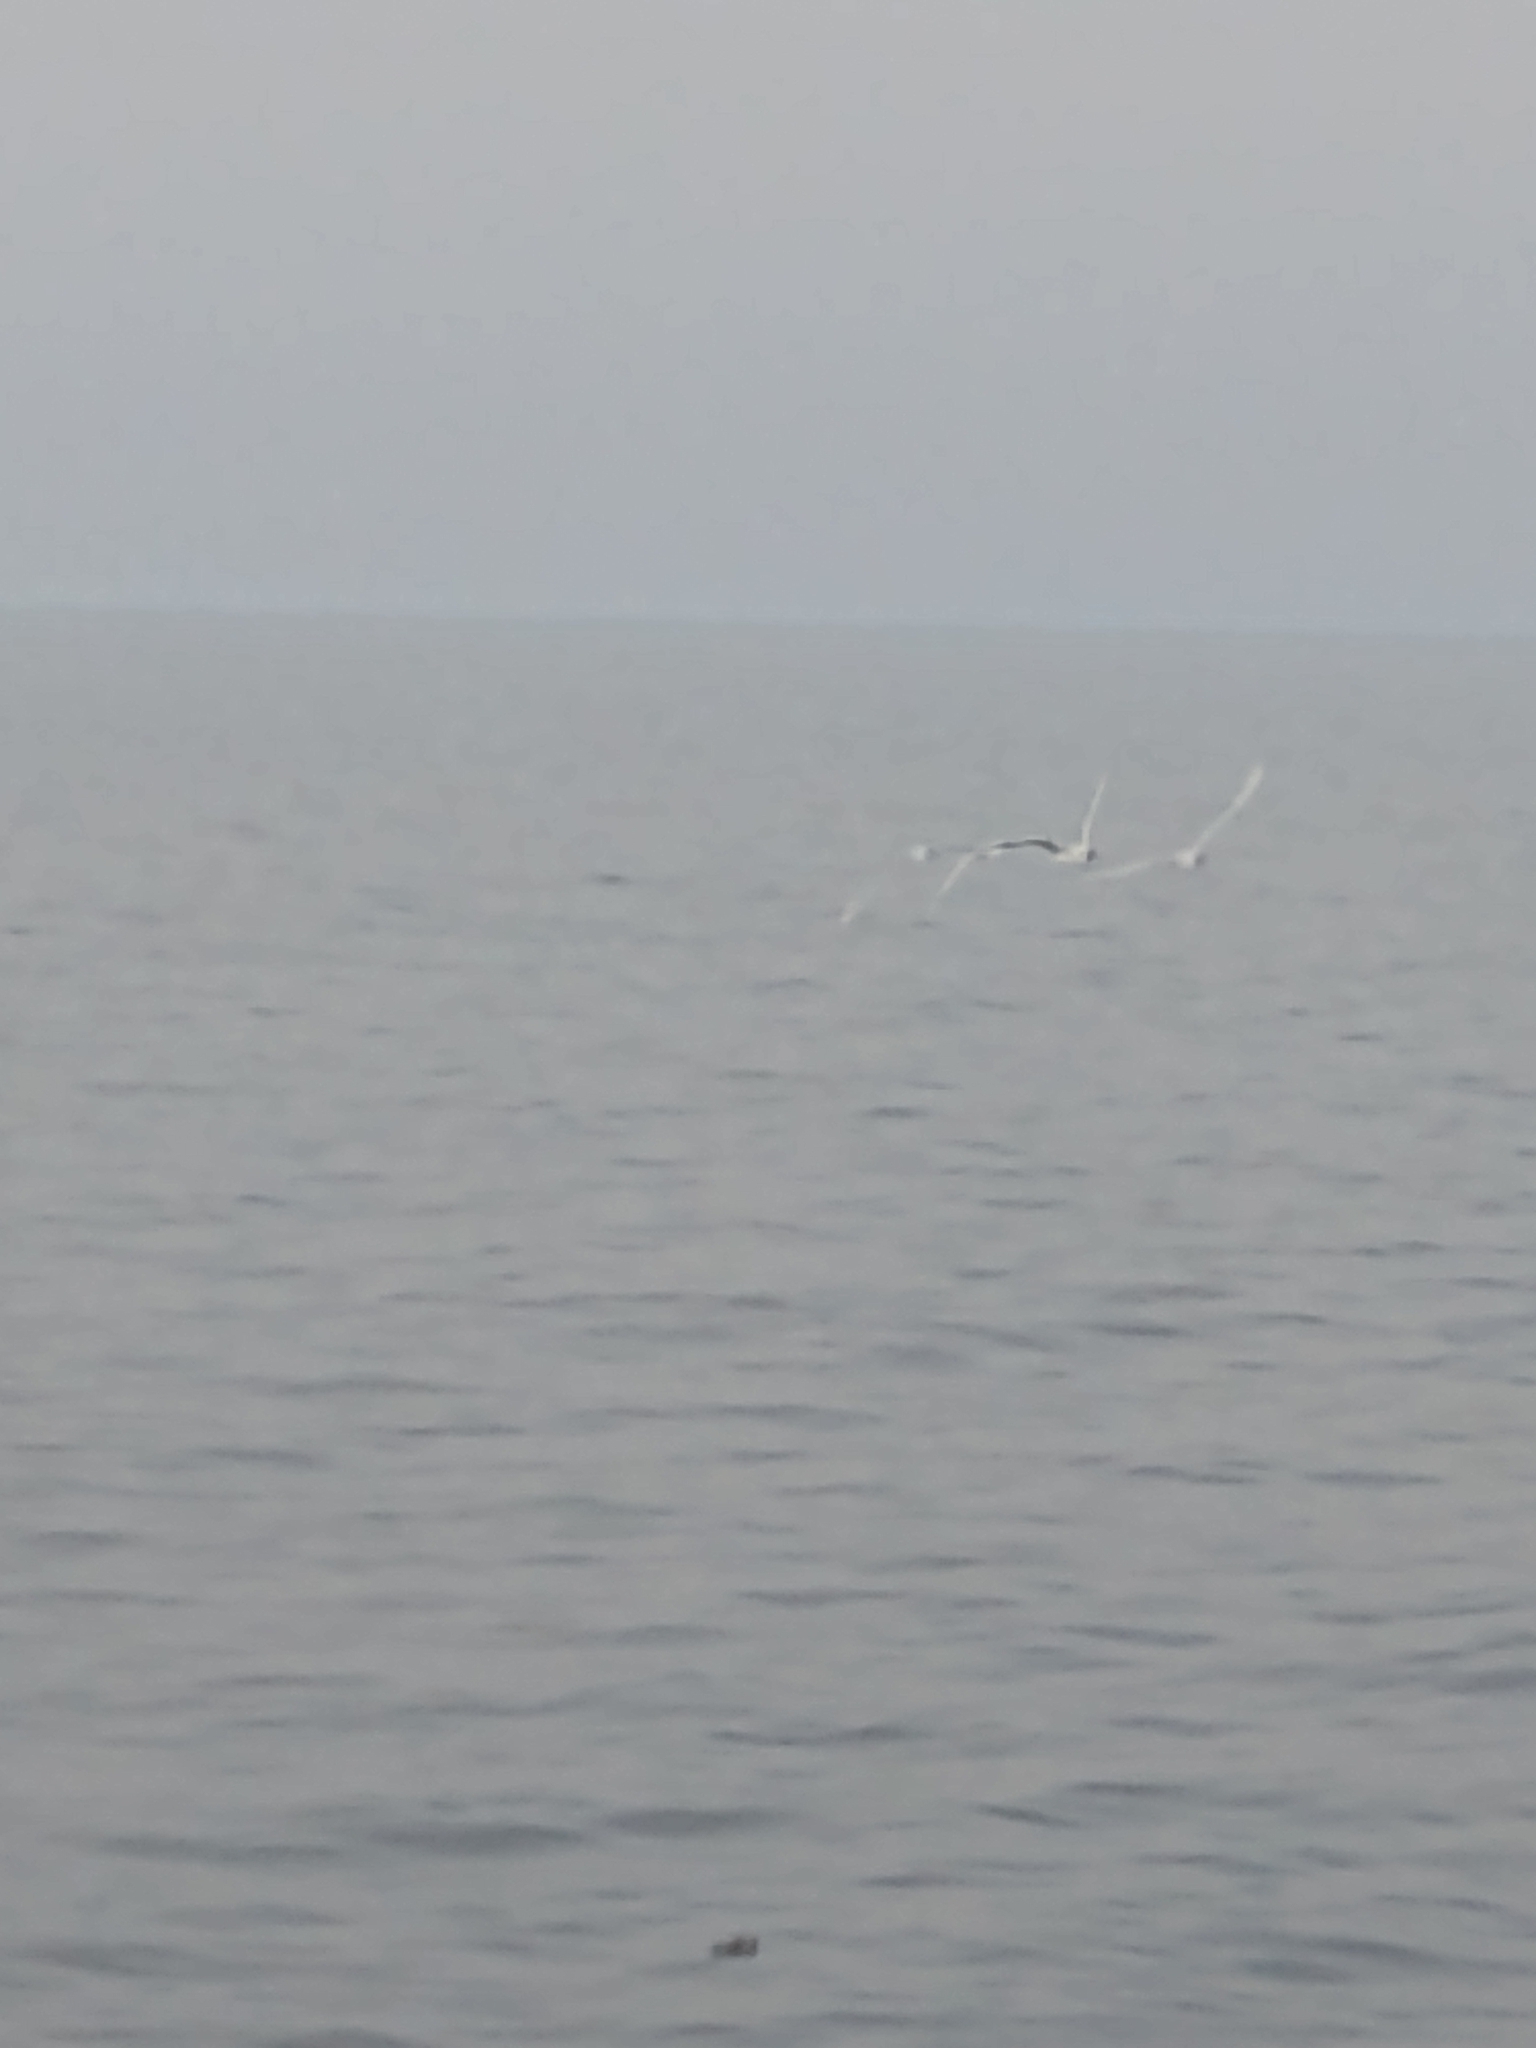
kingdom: Animalia
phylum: Chordata
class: Aves
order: Charadriiformes
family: Laridae
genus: Chroicocephalus
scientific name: Chroicocephalus maculipennis
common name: Brown-hooded gull
